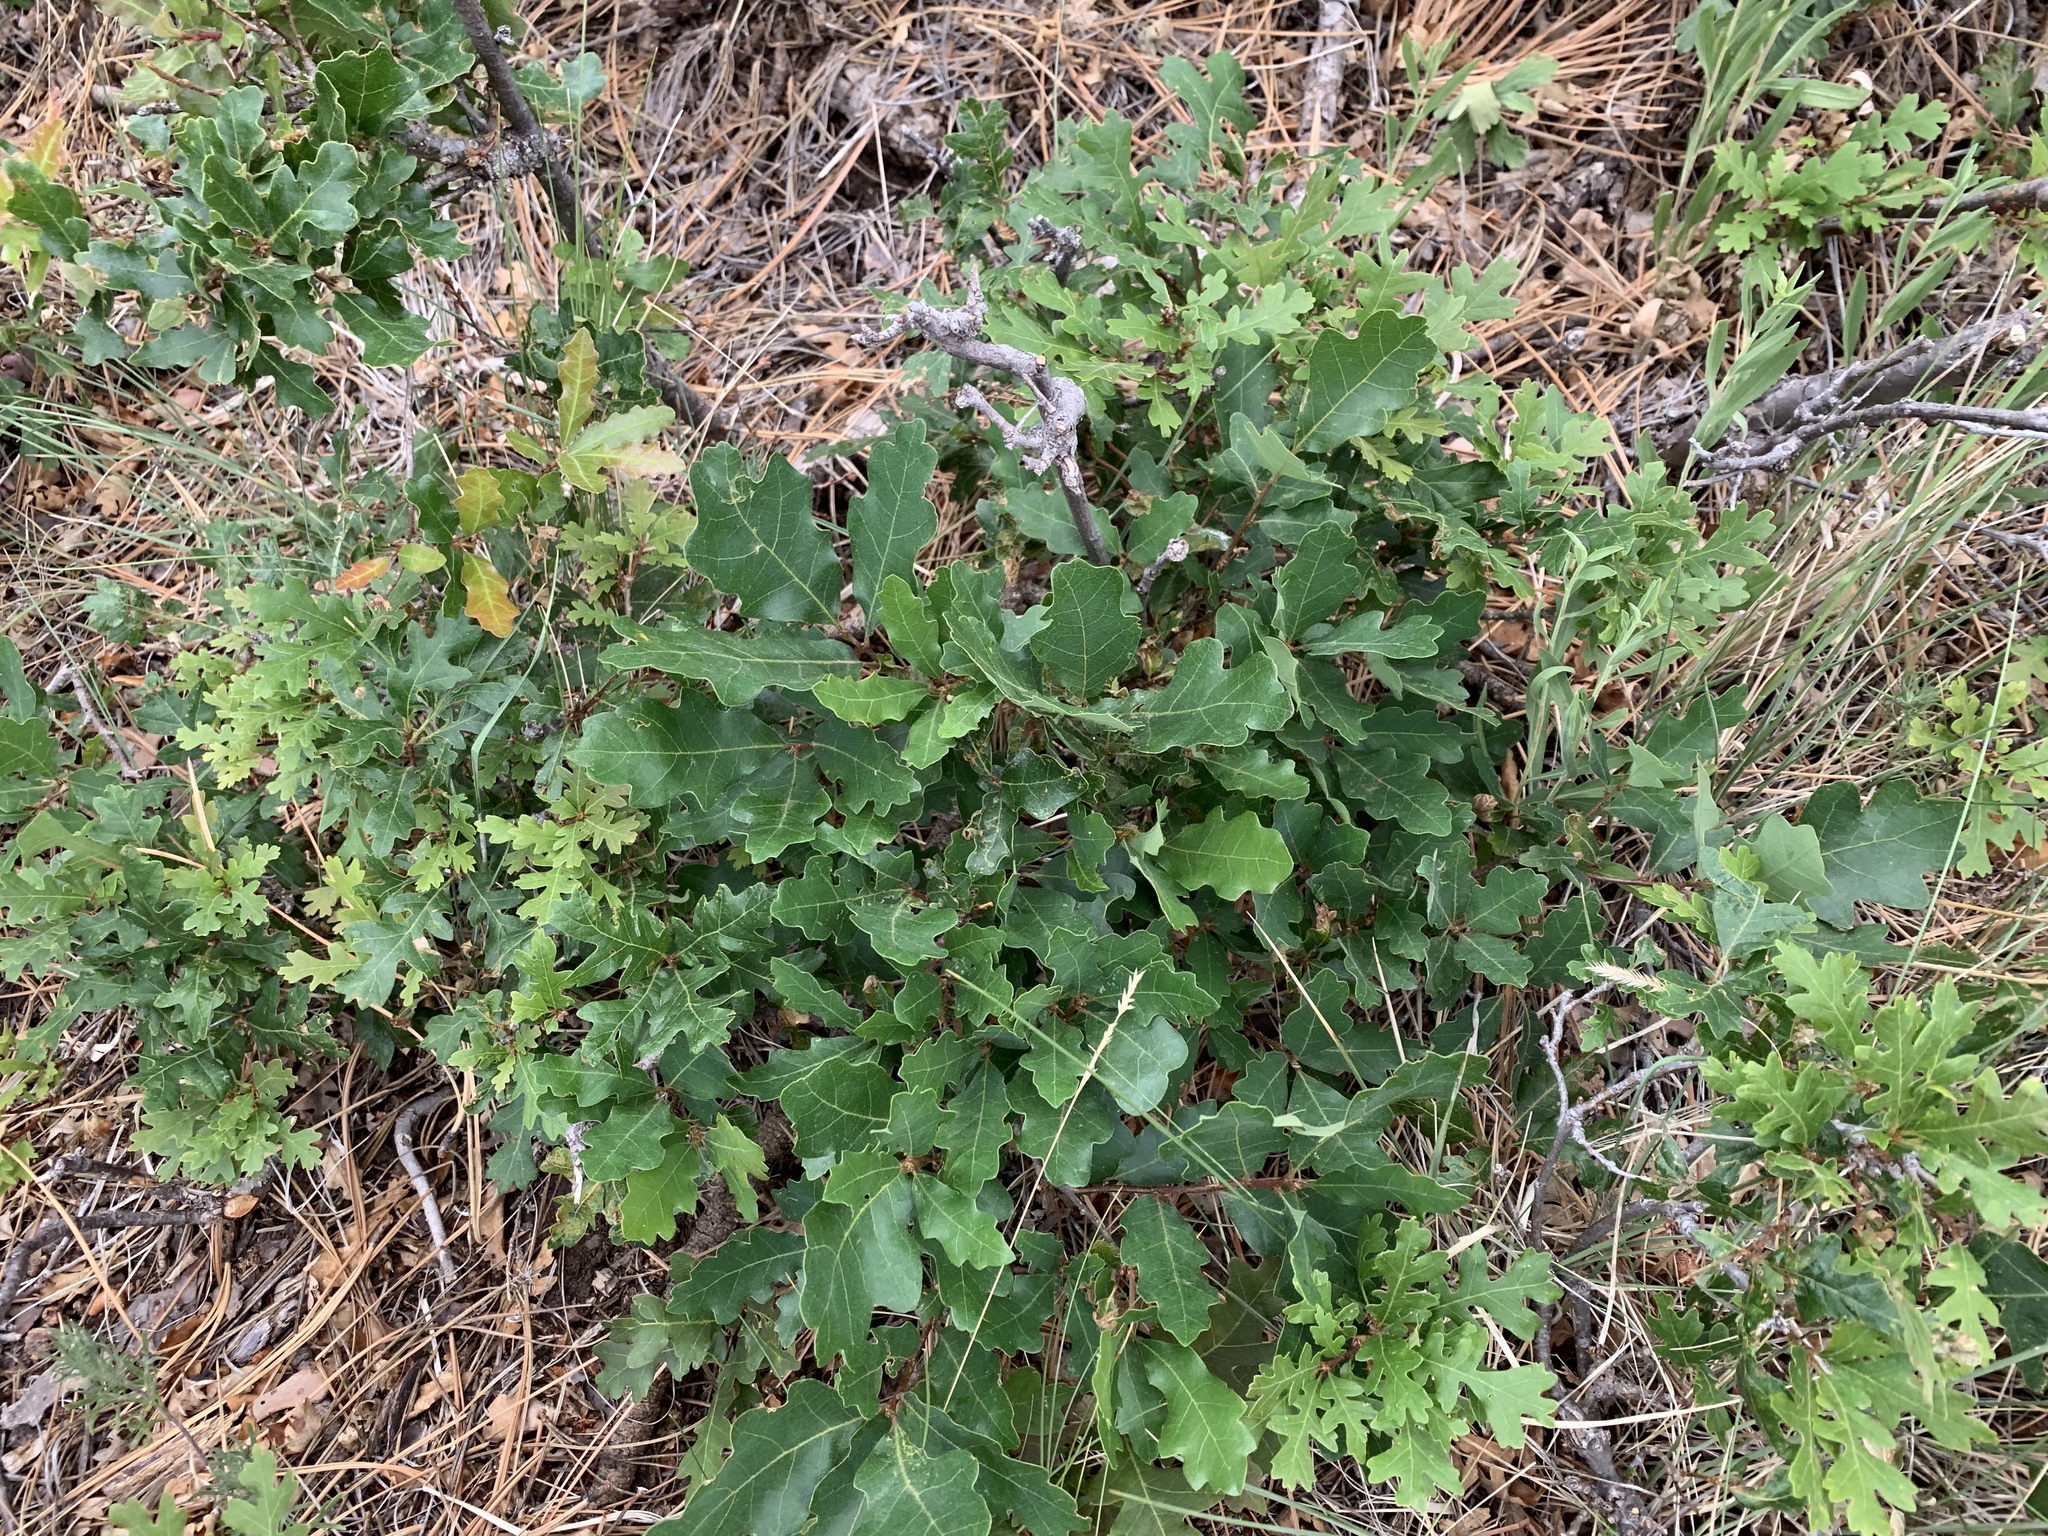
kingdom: Plantae
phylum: Tracheophyta
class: Magnoliopsida
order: Fagales
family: Fagaceae
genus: Quercus
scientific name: Quercus gambelii
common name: Gambel oak
